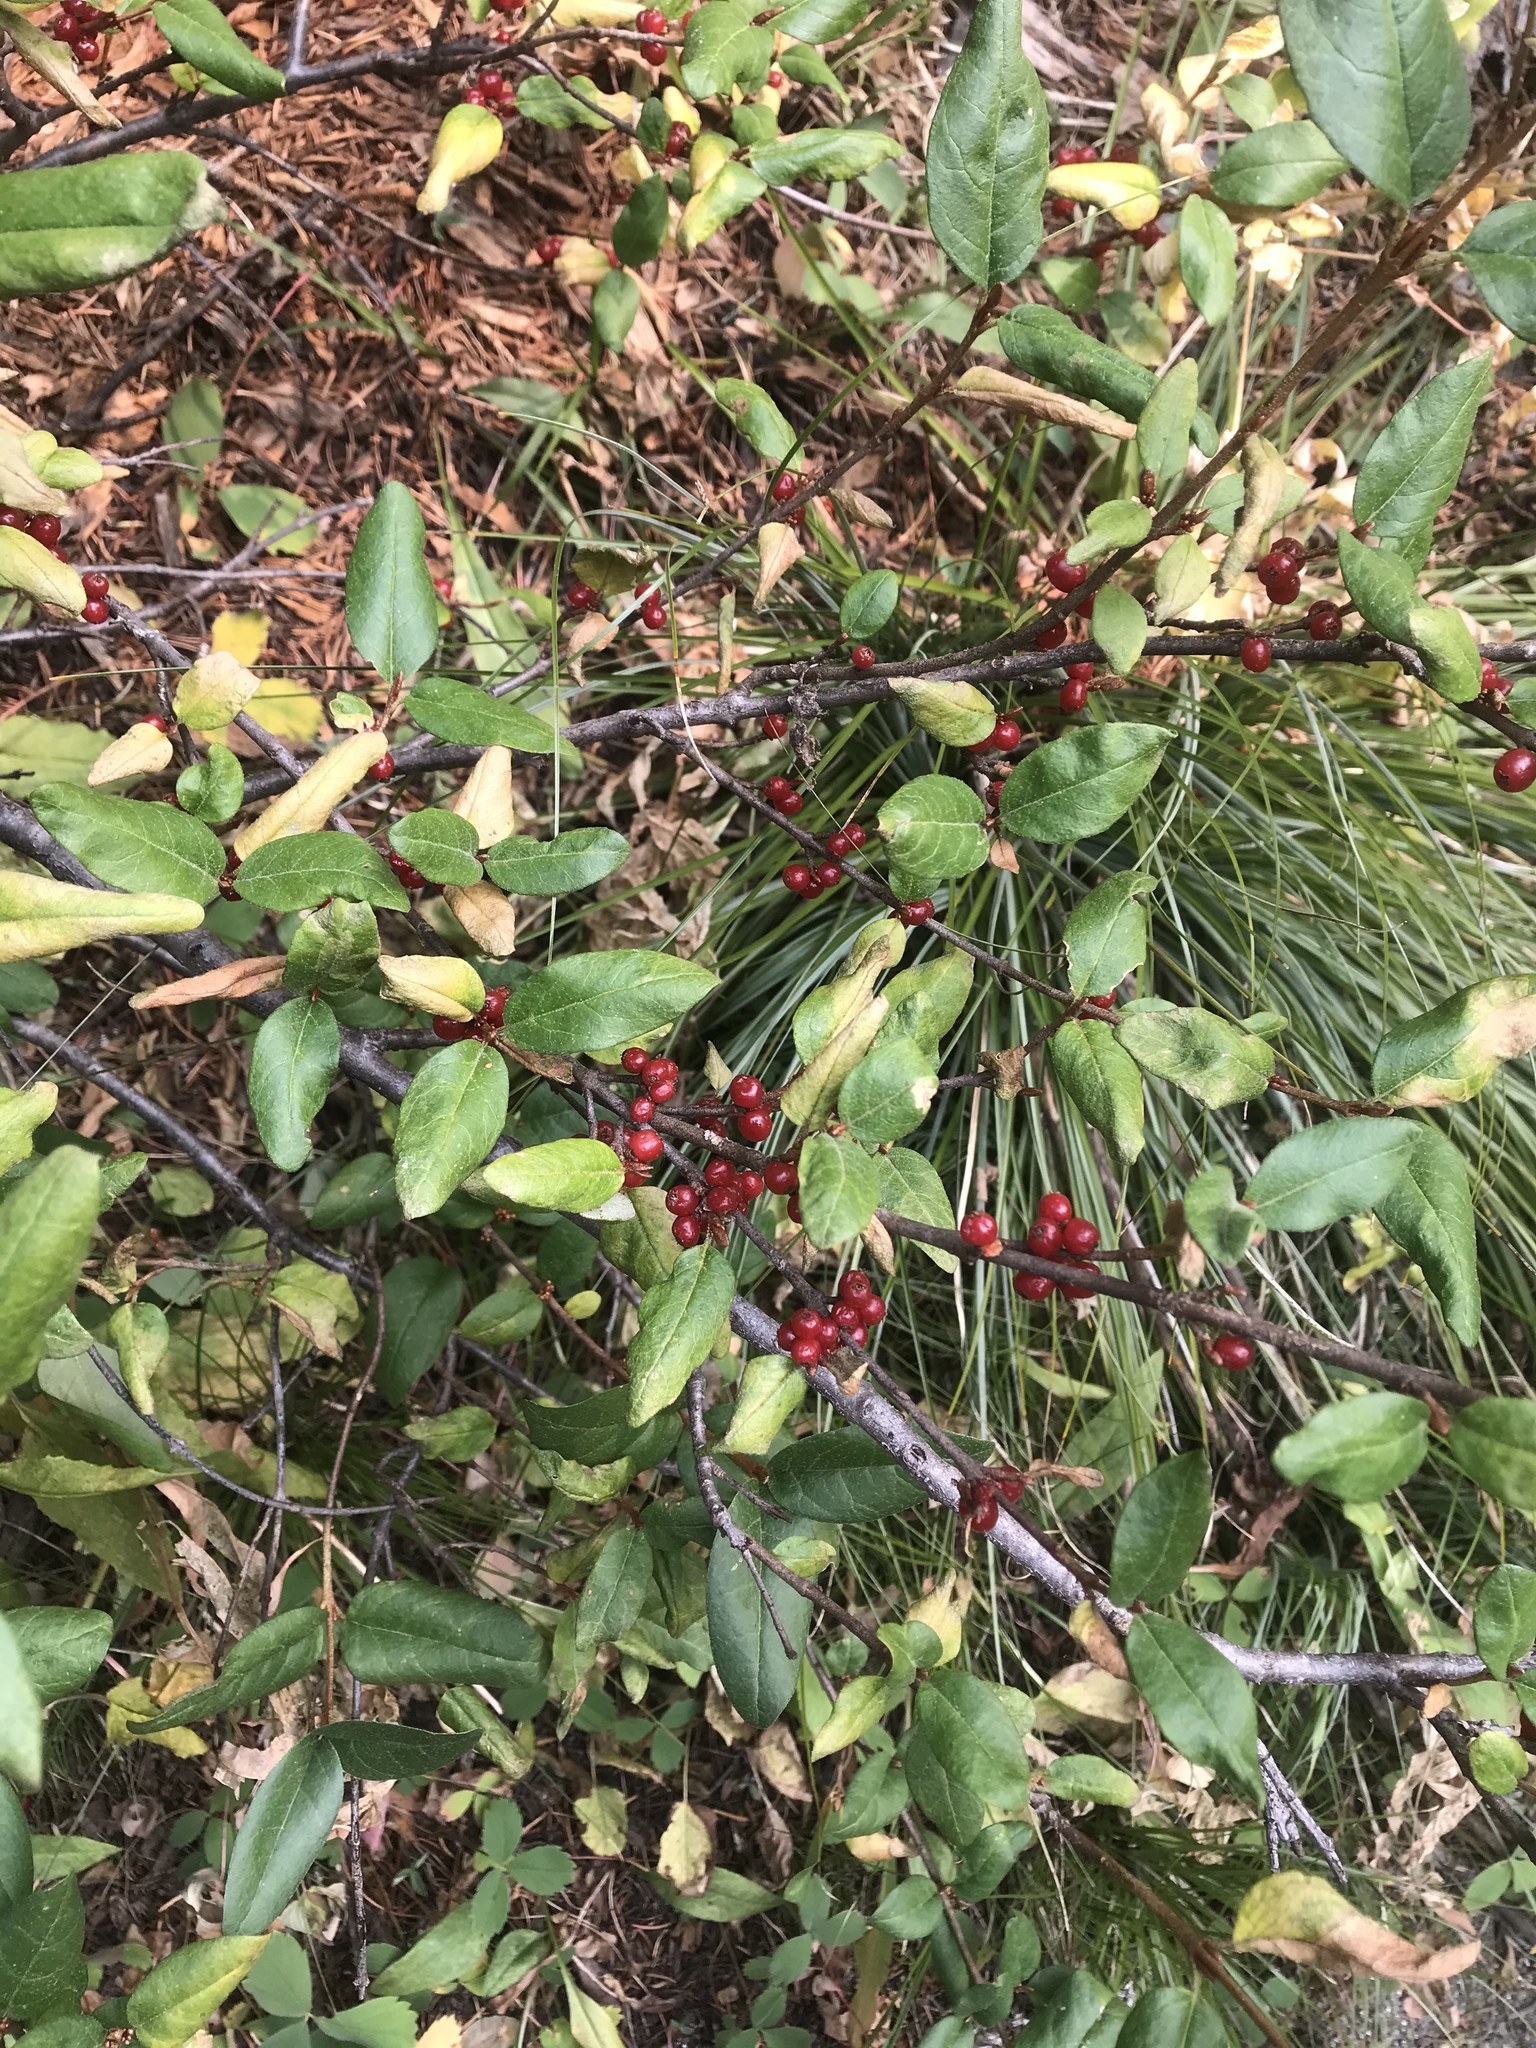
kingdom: Plantae
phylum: Tracheophyta
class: Magnoliopsida
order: Rosales
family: Elaeagnaceae
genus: Shepherdia
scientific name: Shepherdia canadensis
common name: Soapberry
